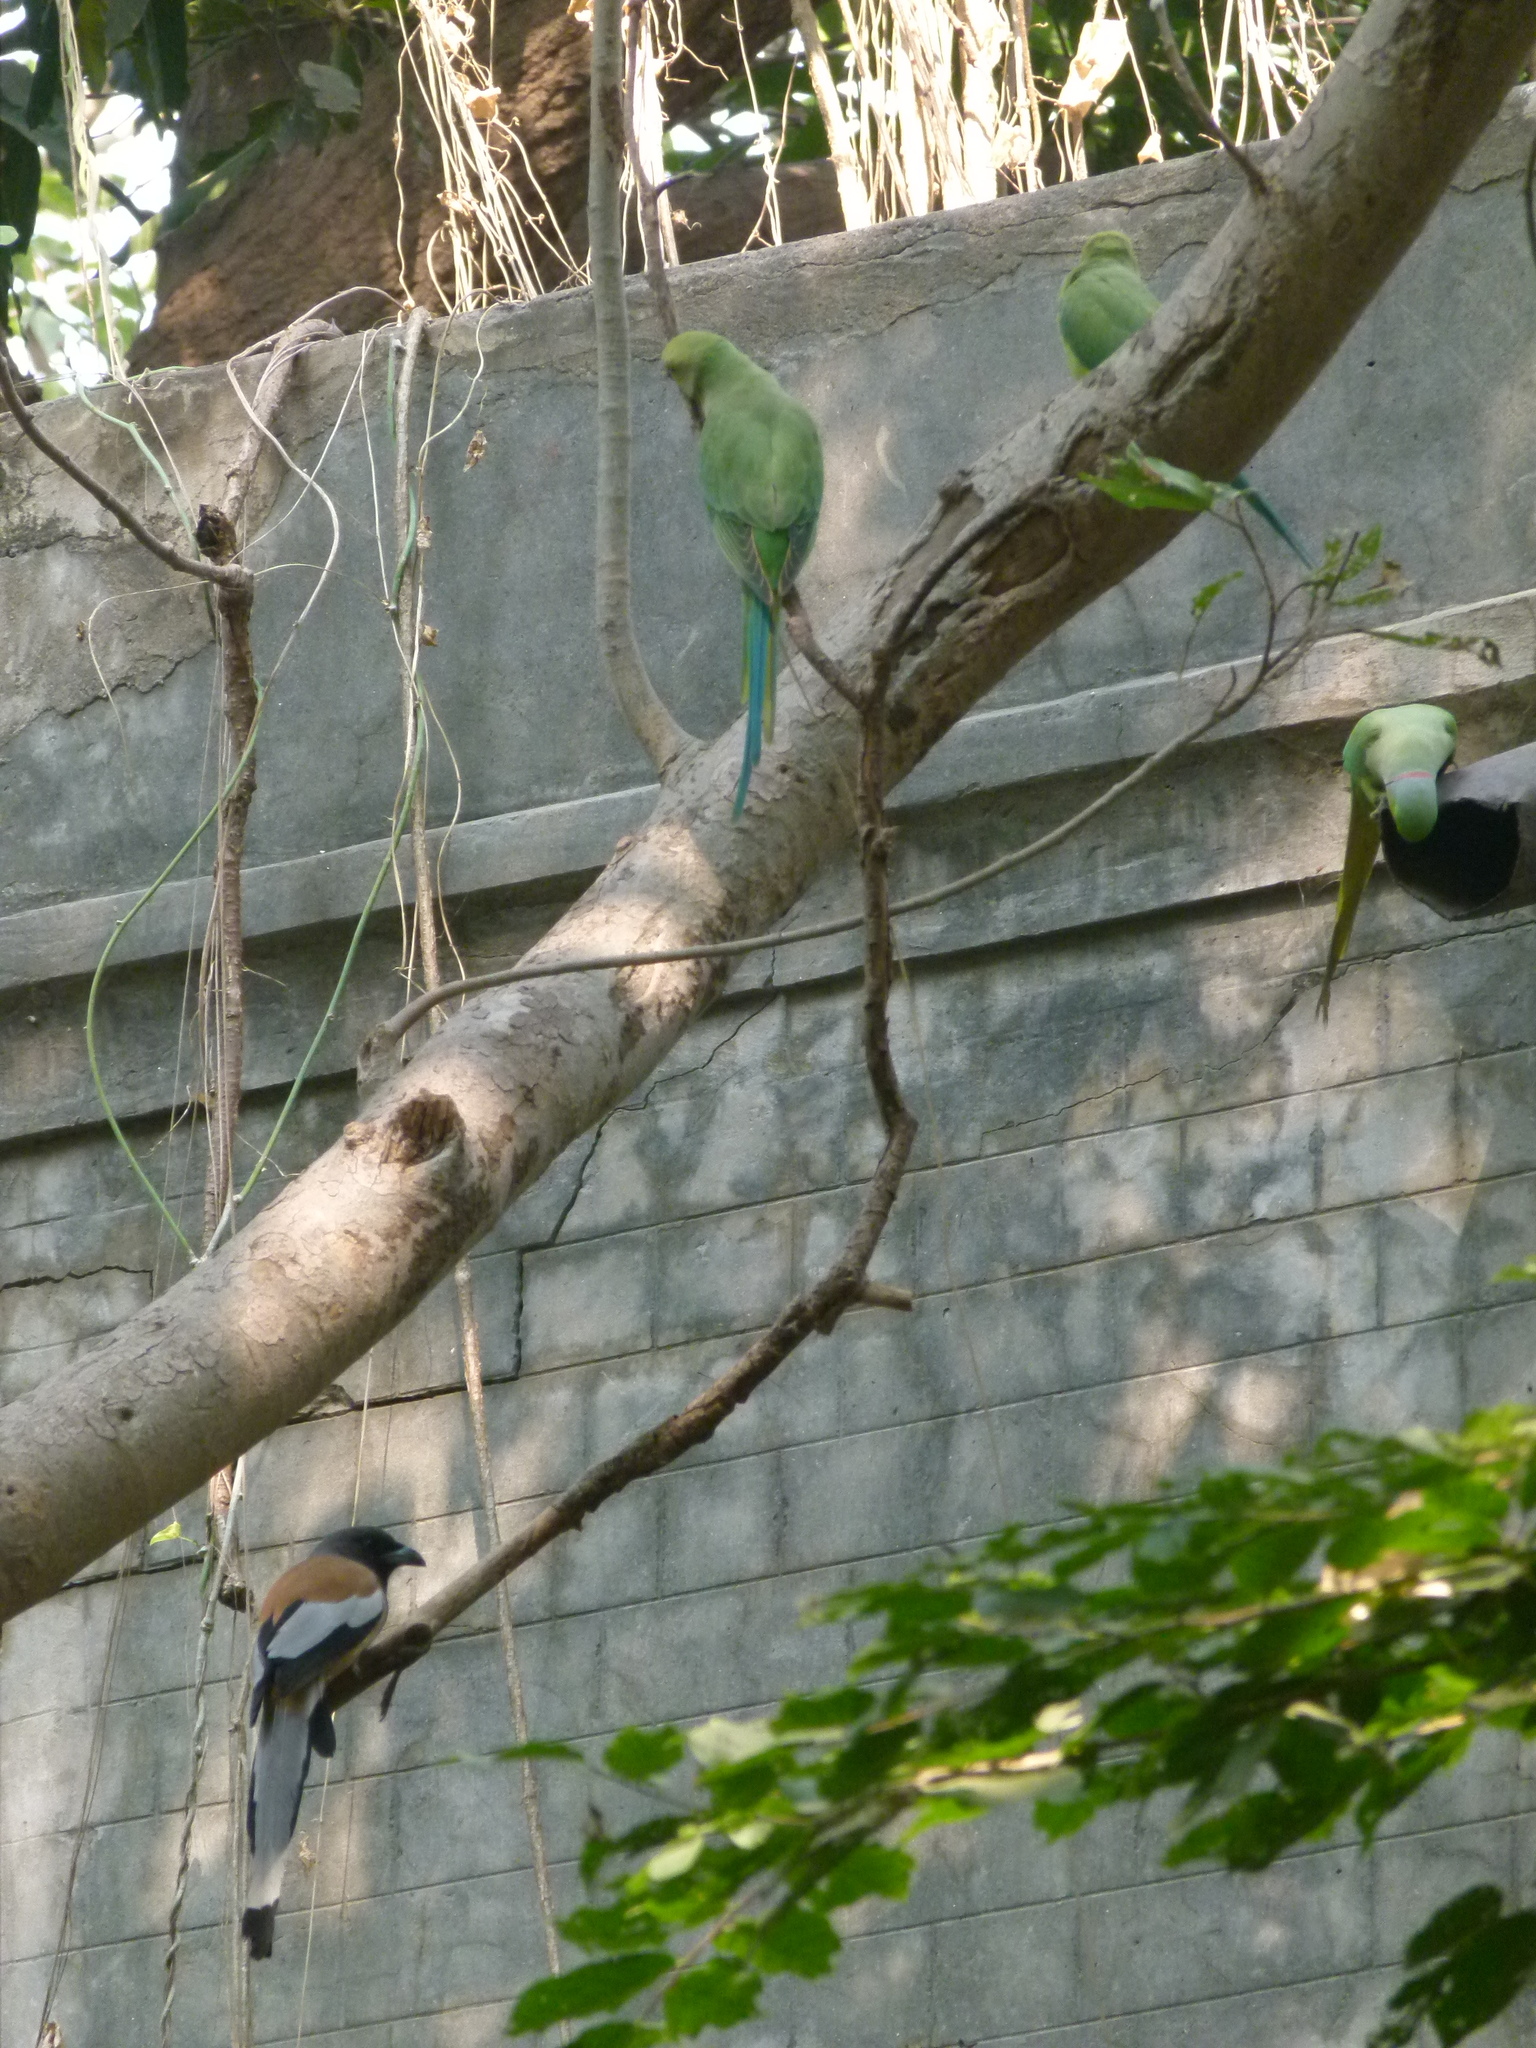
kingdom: Animalia
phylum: Chordata
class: Aves
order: Psittaciformes
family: Psittacidae
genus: Psittacula
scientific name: Psittacula krameri
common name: Rose-ringed parakeet
